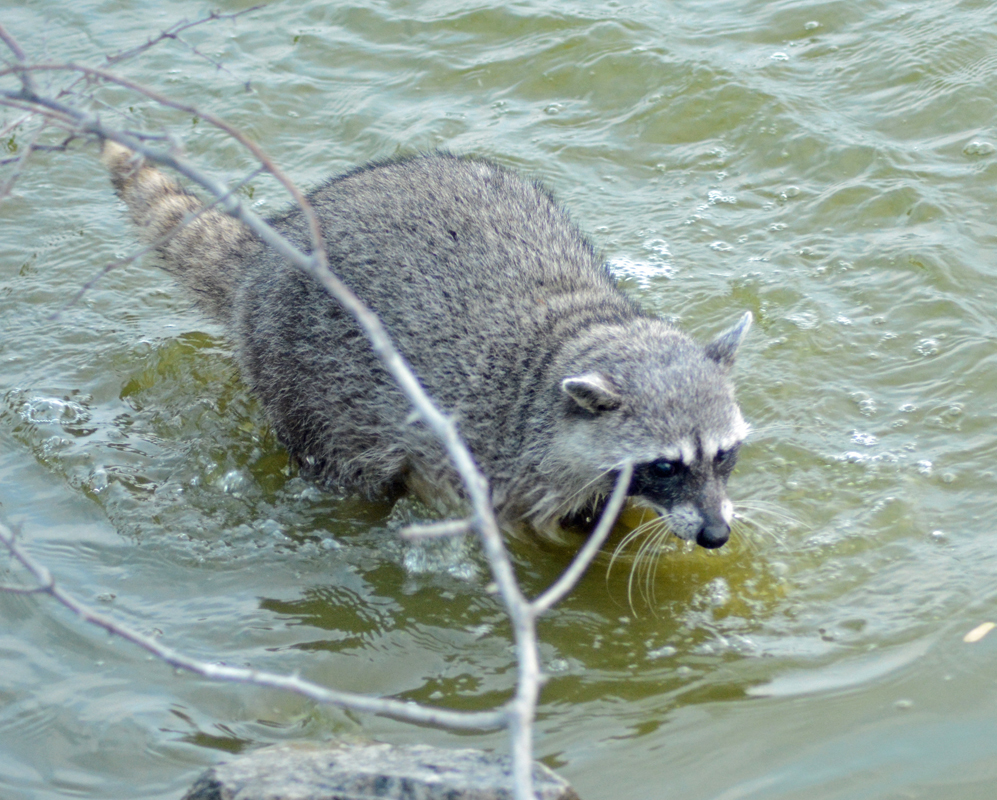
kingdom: Animalia
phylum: Chordata
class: Mammalia
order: Carnivora
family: Procyonidae
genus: Procyon
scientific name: Procyon lotor
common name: Raccoon
